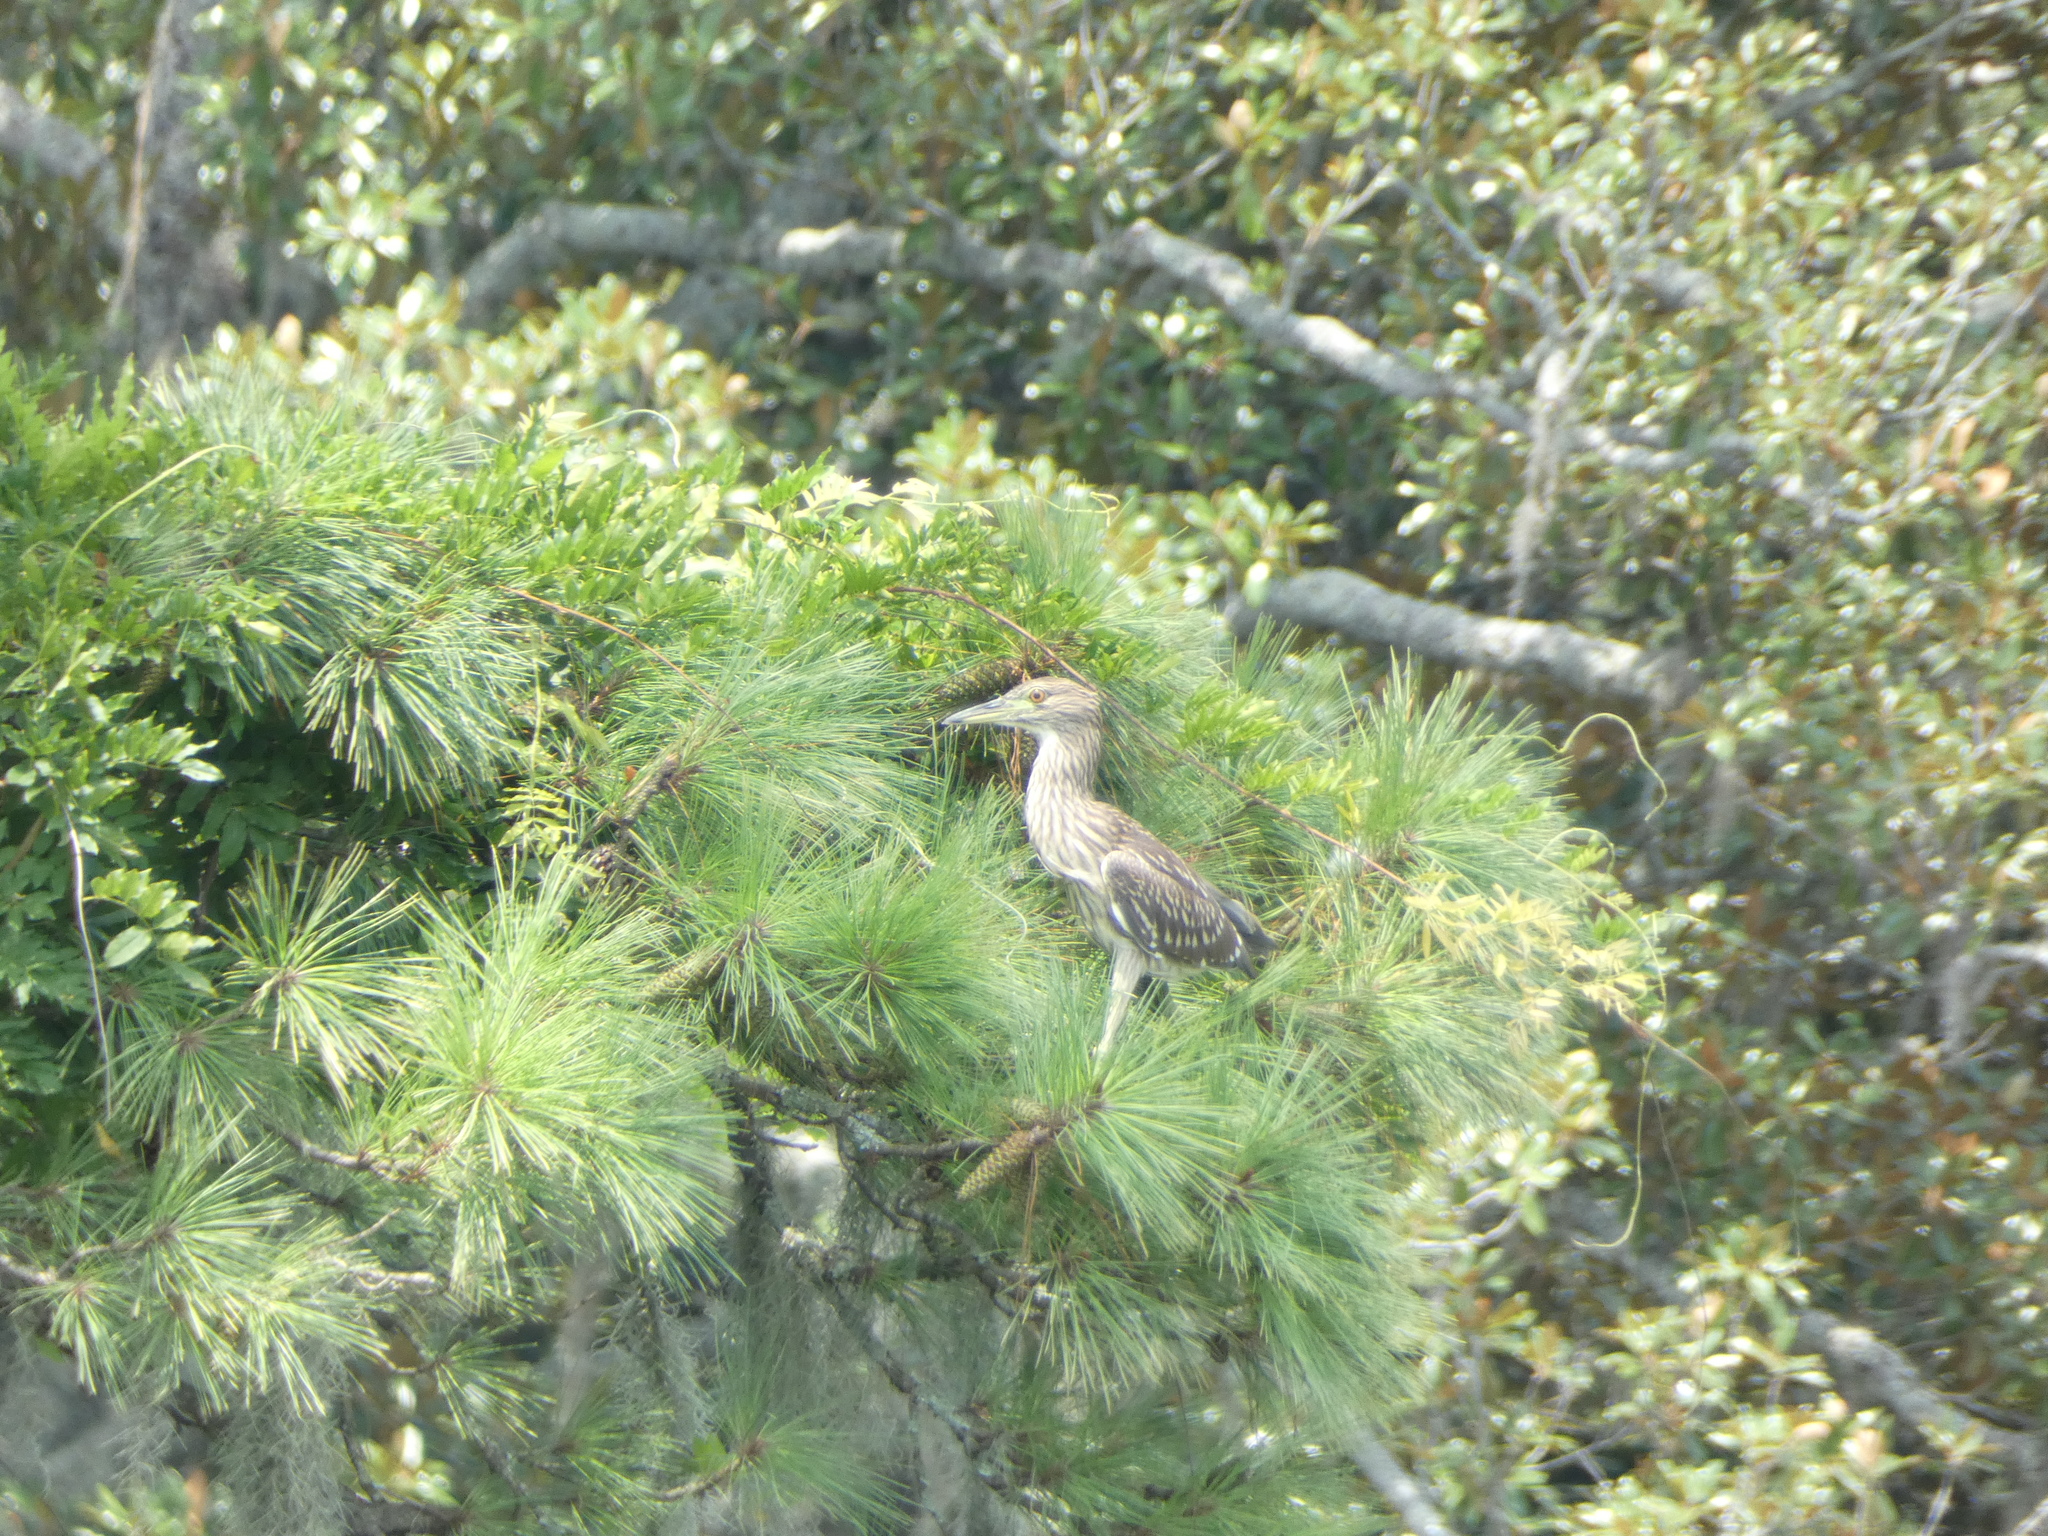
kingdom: Animalia
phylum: Chordata
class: Aves
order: Pelecaniformes
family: Ardeidae
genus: Nycticorax
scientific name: Nycticorax nycticorax
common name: Black-crowned night heron
